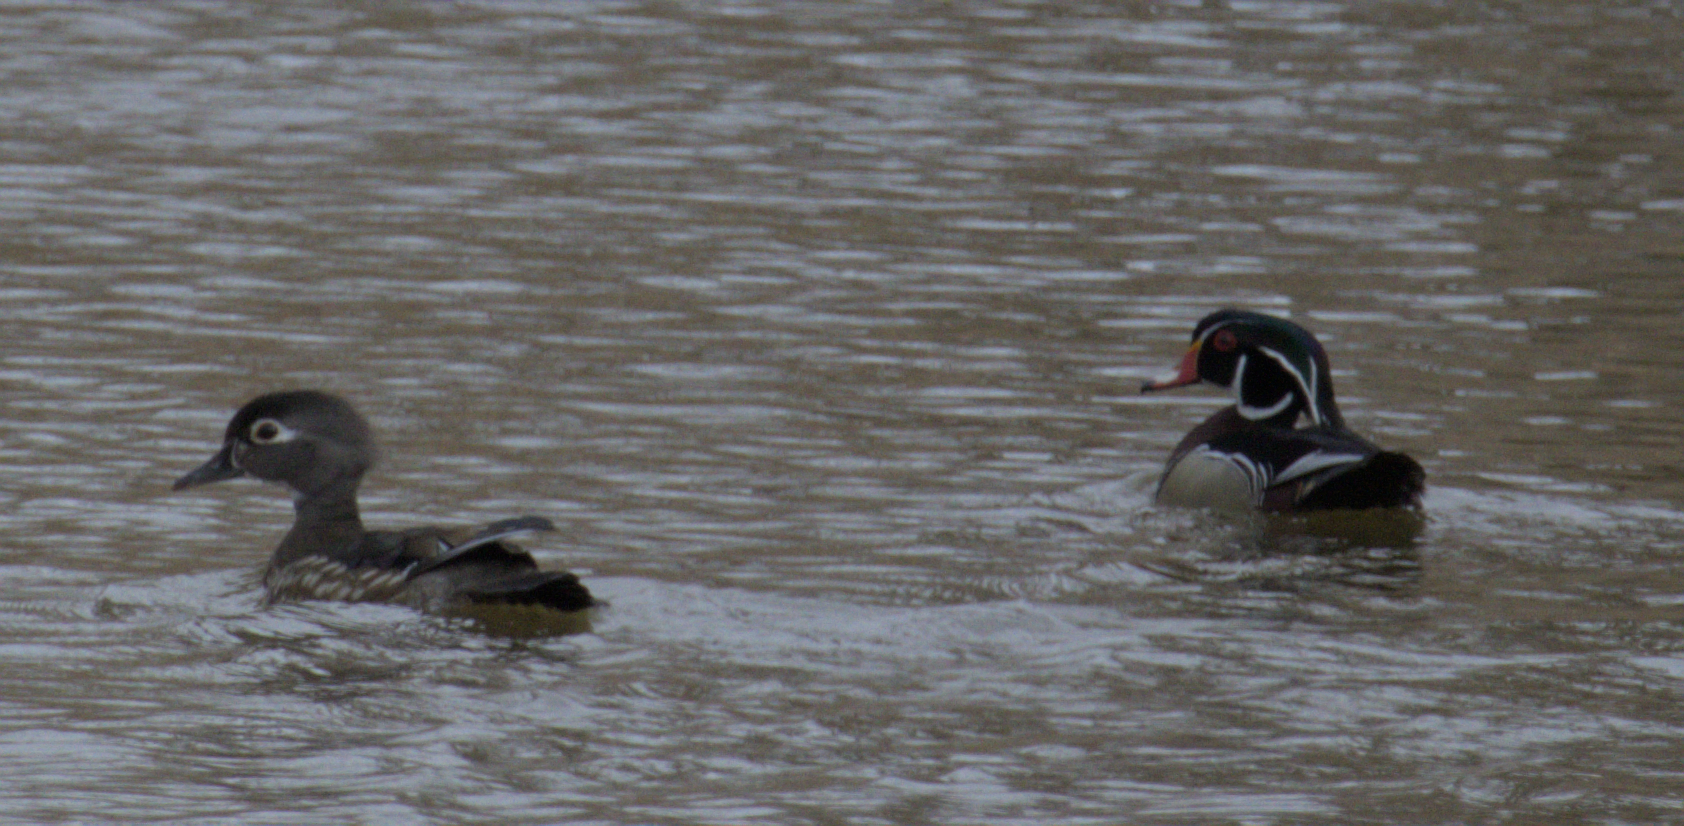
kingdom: Animalia
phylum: Chordata
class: Aves
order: Anseriformes
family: Anatidae
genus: Aix
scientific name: Aix sponsa
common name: Wood duck
